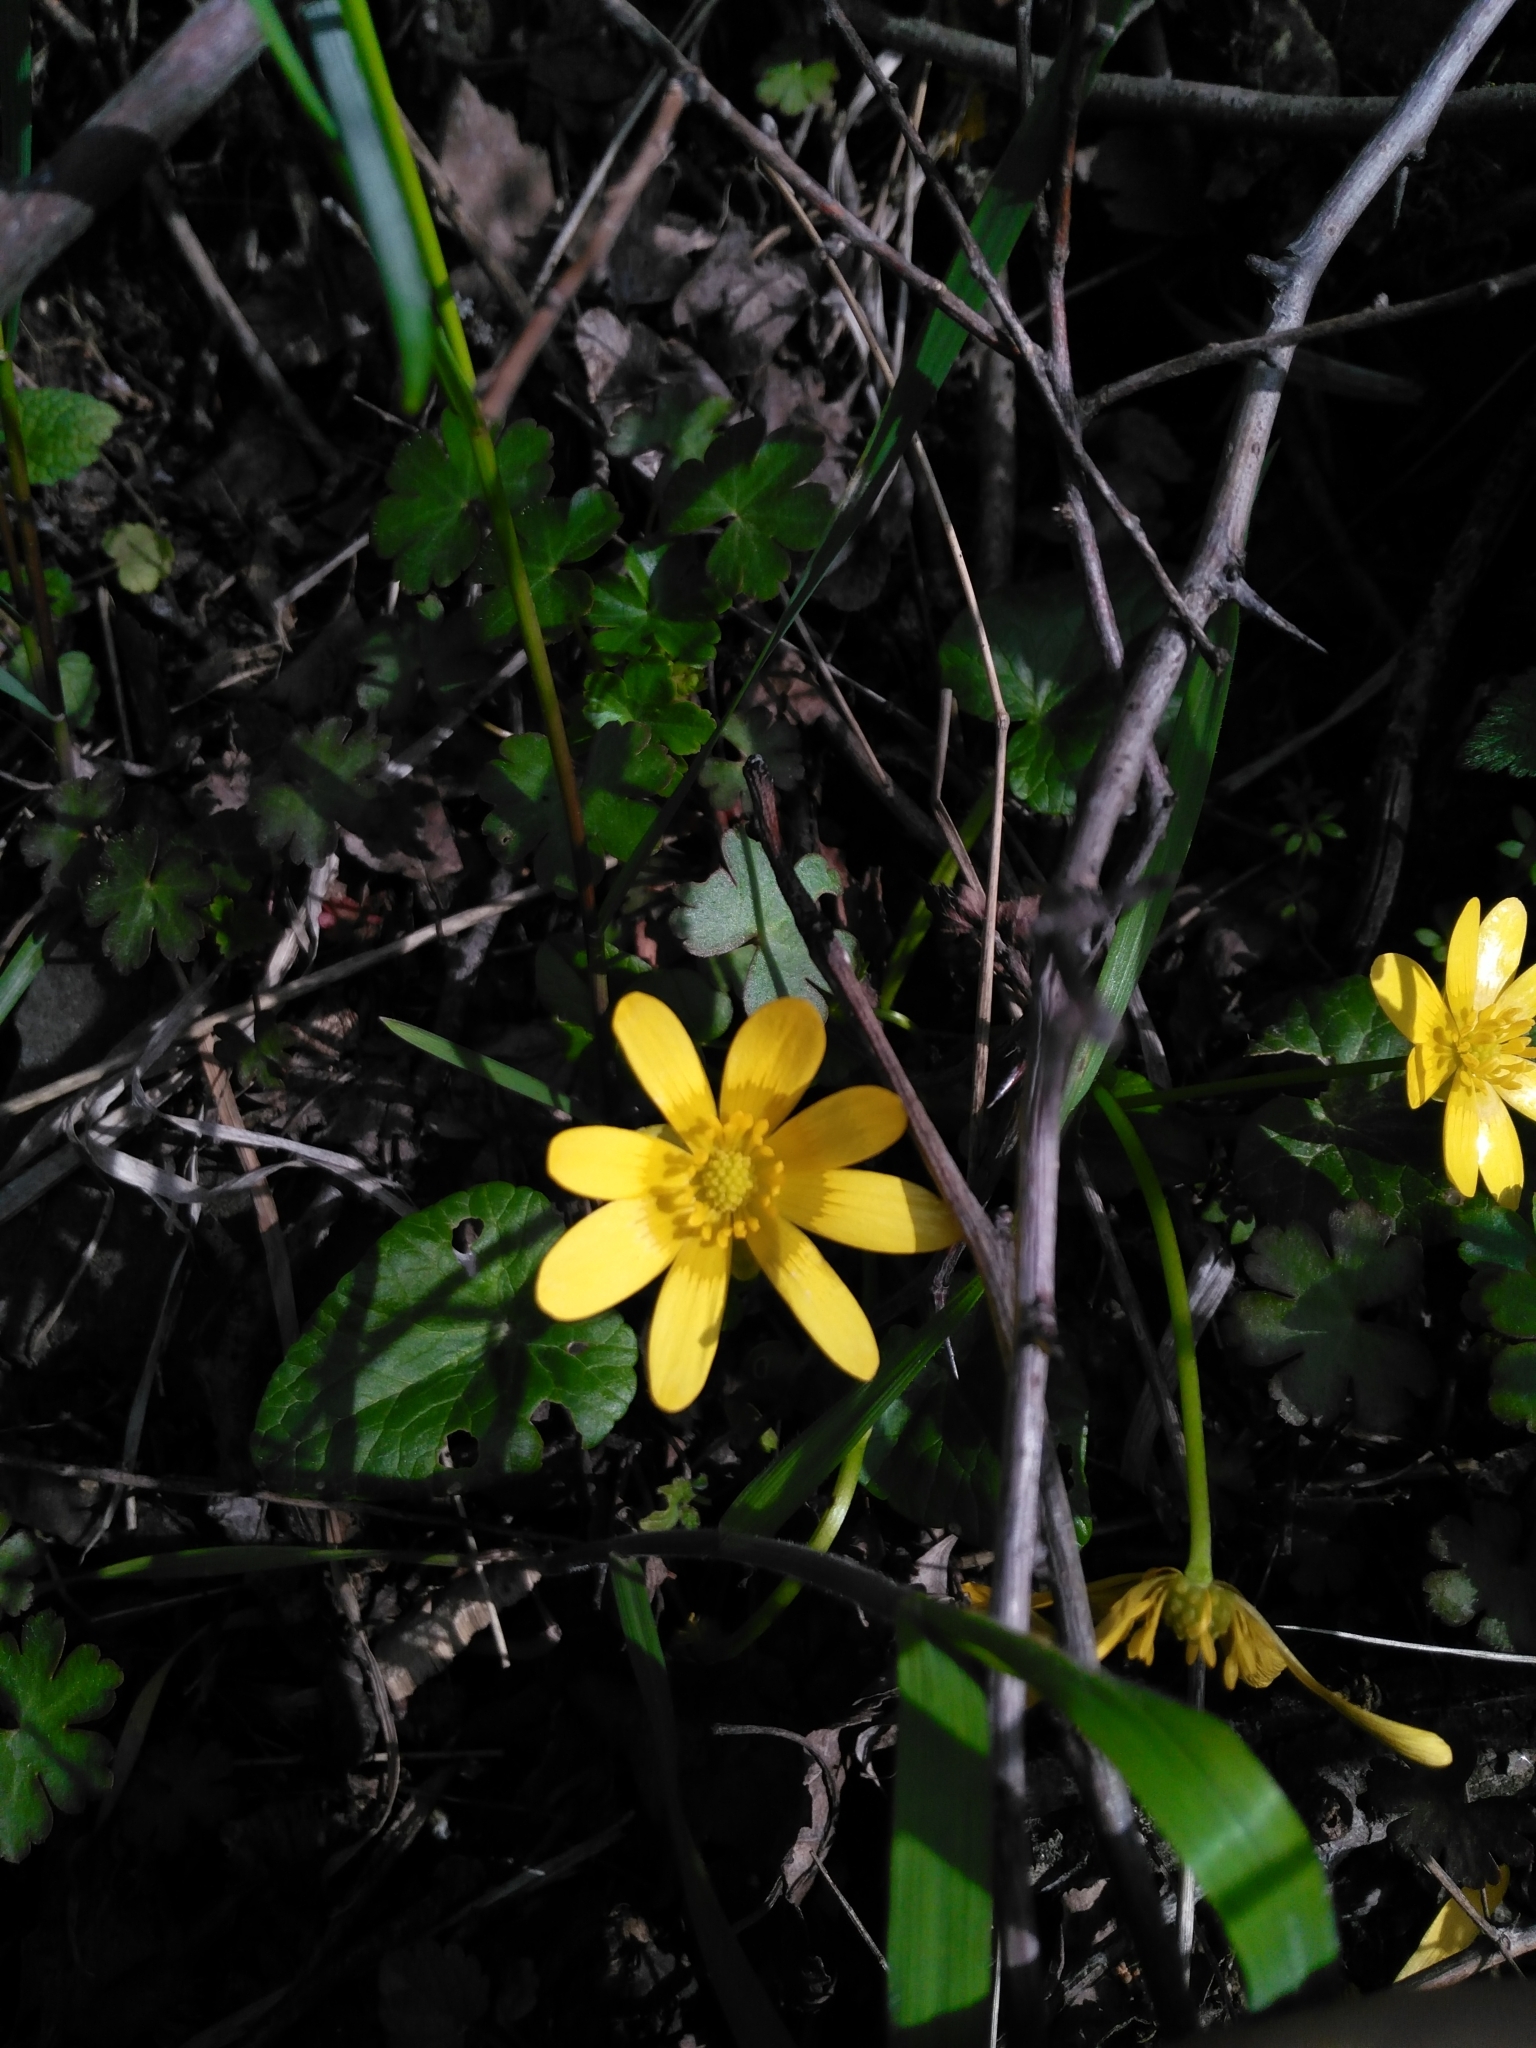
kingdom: Plantae
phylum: Tracheophyta
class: Magnoliopsida
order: Ranunculales
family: Ranunculaceae
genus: Ficaria
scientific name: Ficaria verna
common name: Lesser celandine
